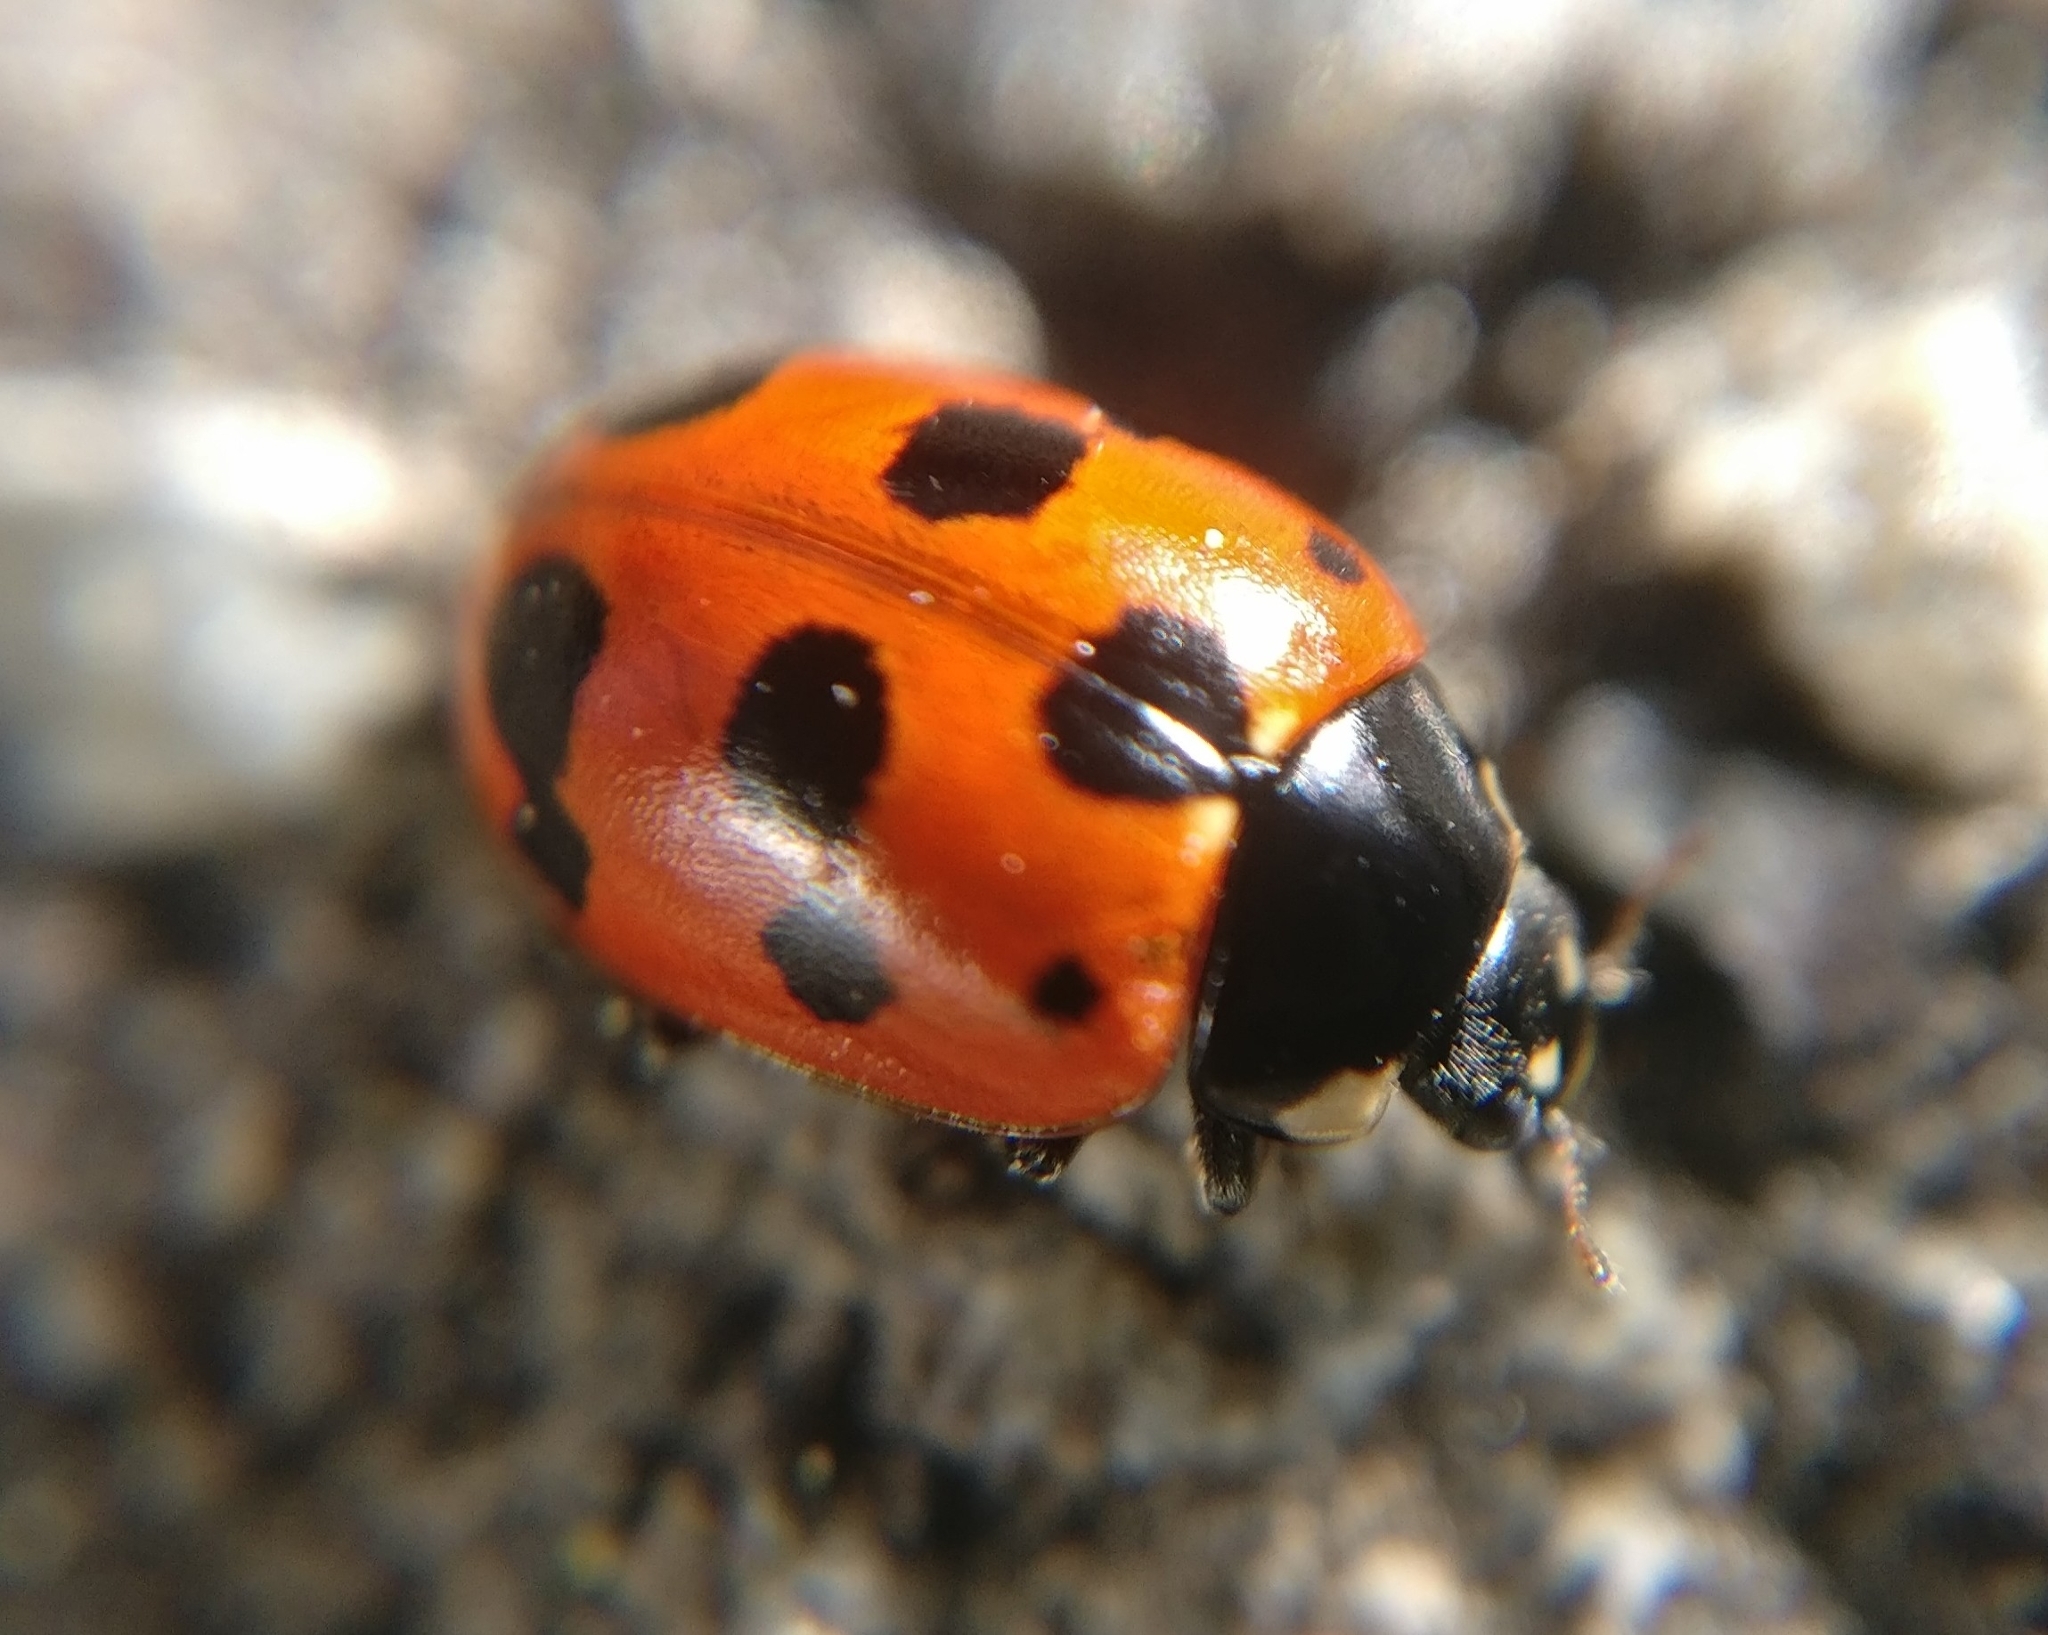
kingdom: Animalia
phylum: Arthropoda
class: Insecta
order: Coleoptera
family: Coccinellidae
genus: Coccinella
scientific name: Coccinella undecimpunctata
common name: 11-spot ladybird
